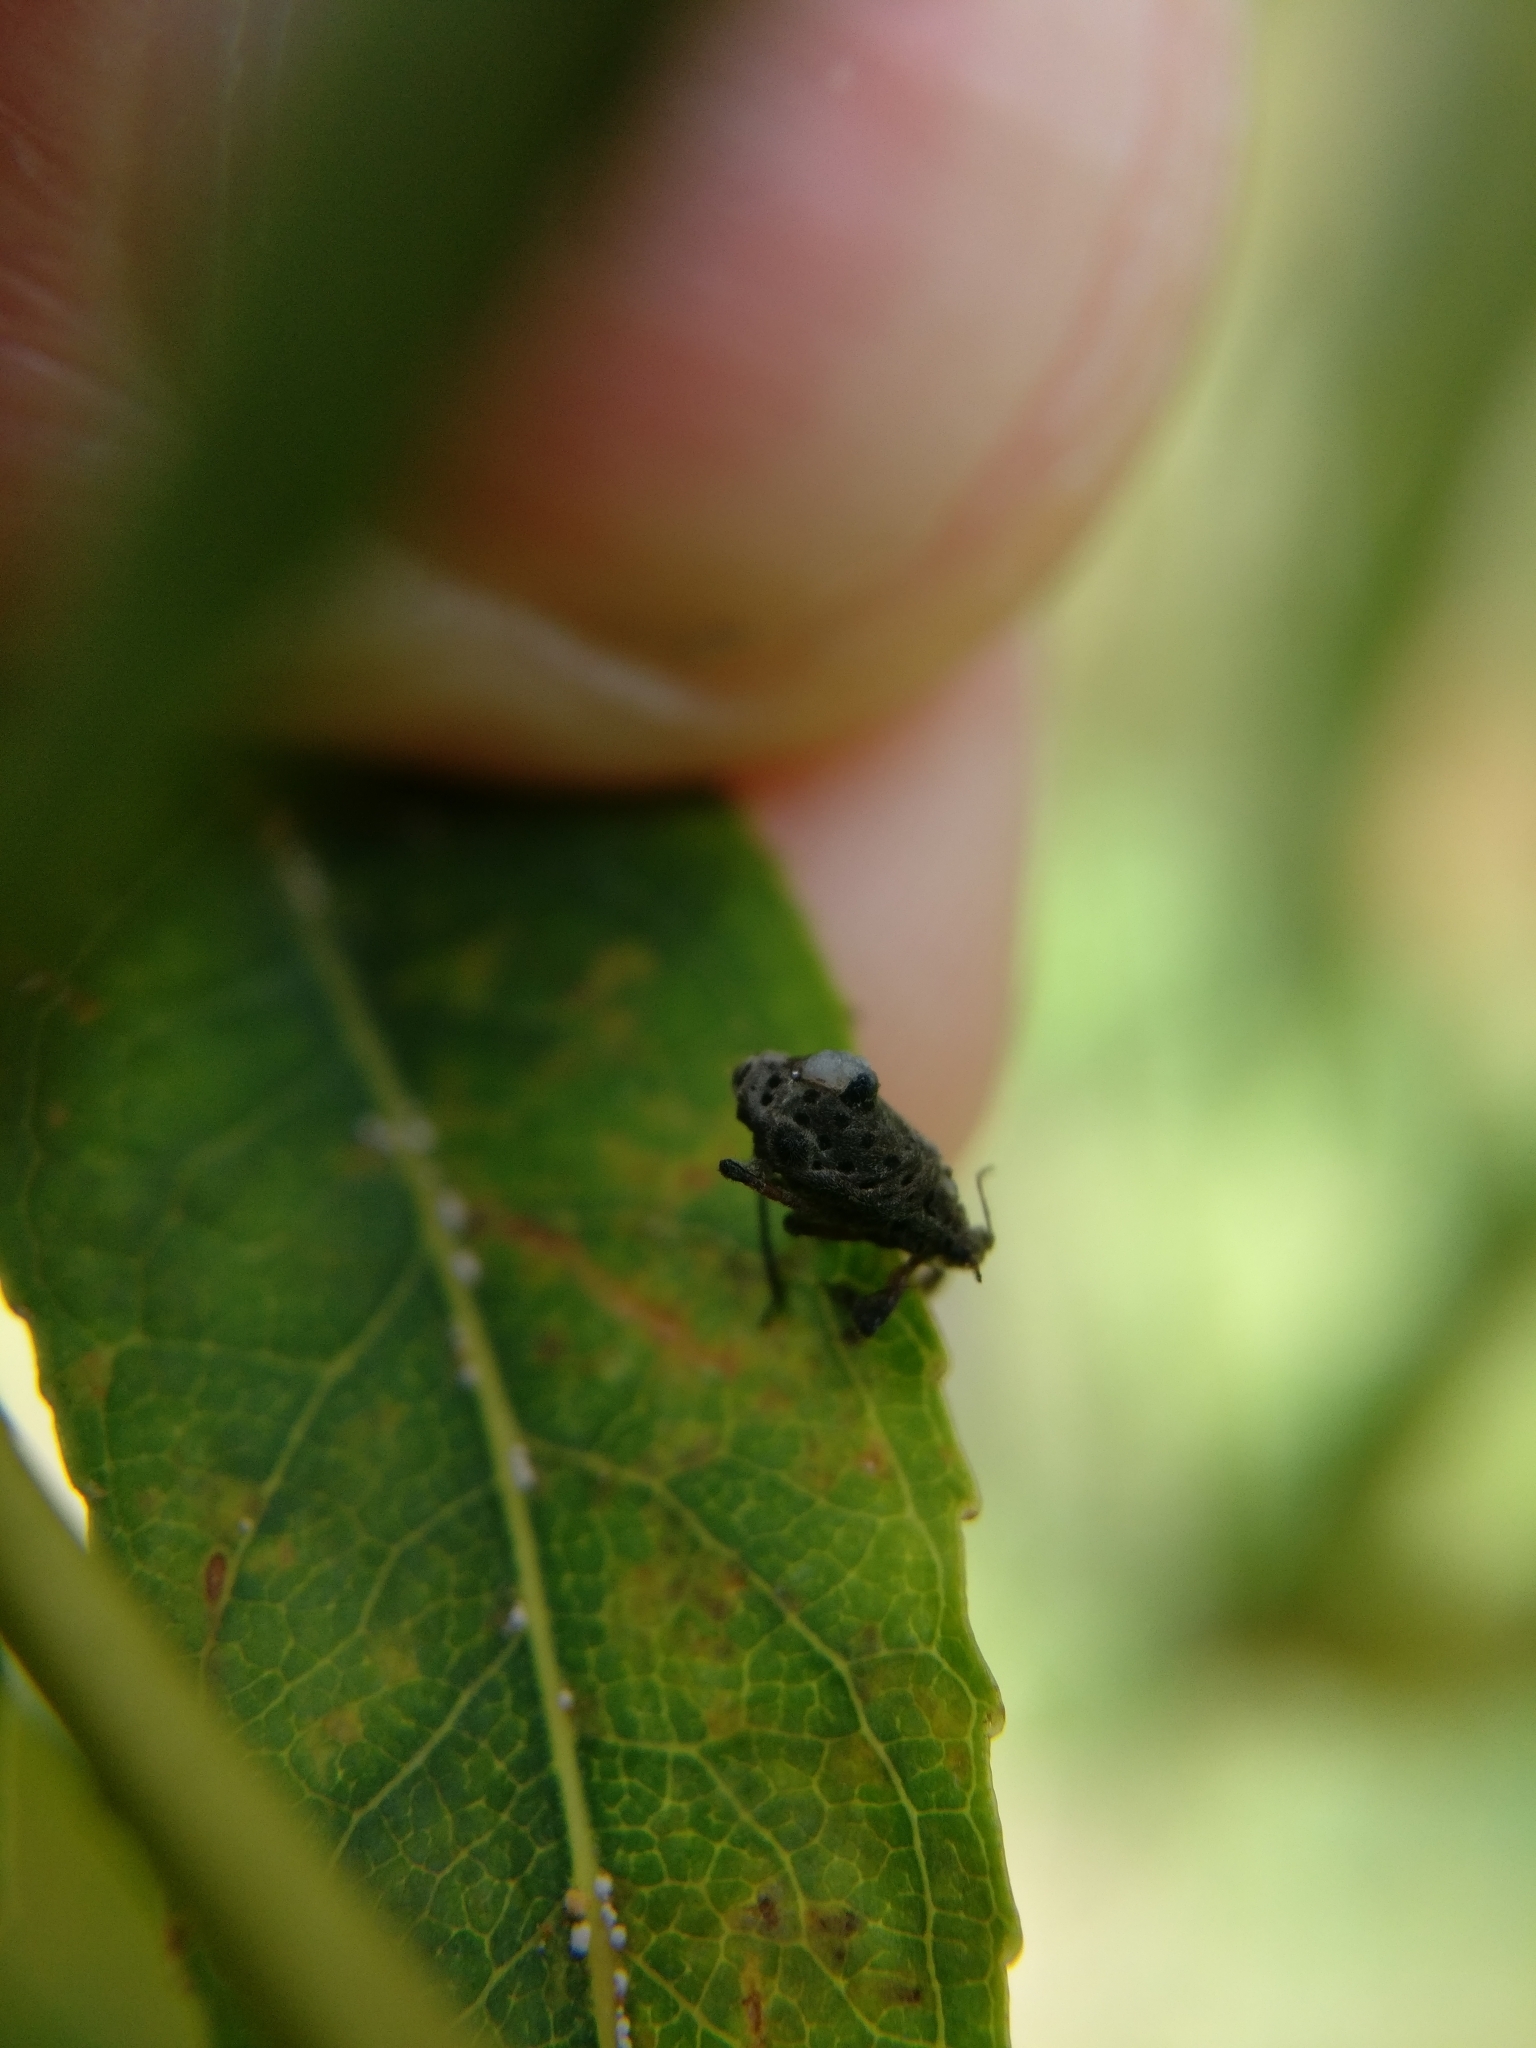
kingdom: Animalia
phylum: Arthropoda
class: Insecta
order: Hemiptera
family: Aphididae
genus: Tuberolachnus
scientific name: Tuberolachnus salignus
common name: Giant willow aphid
